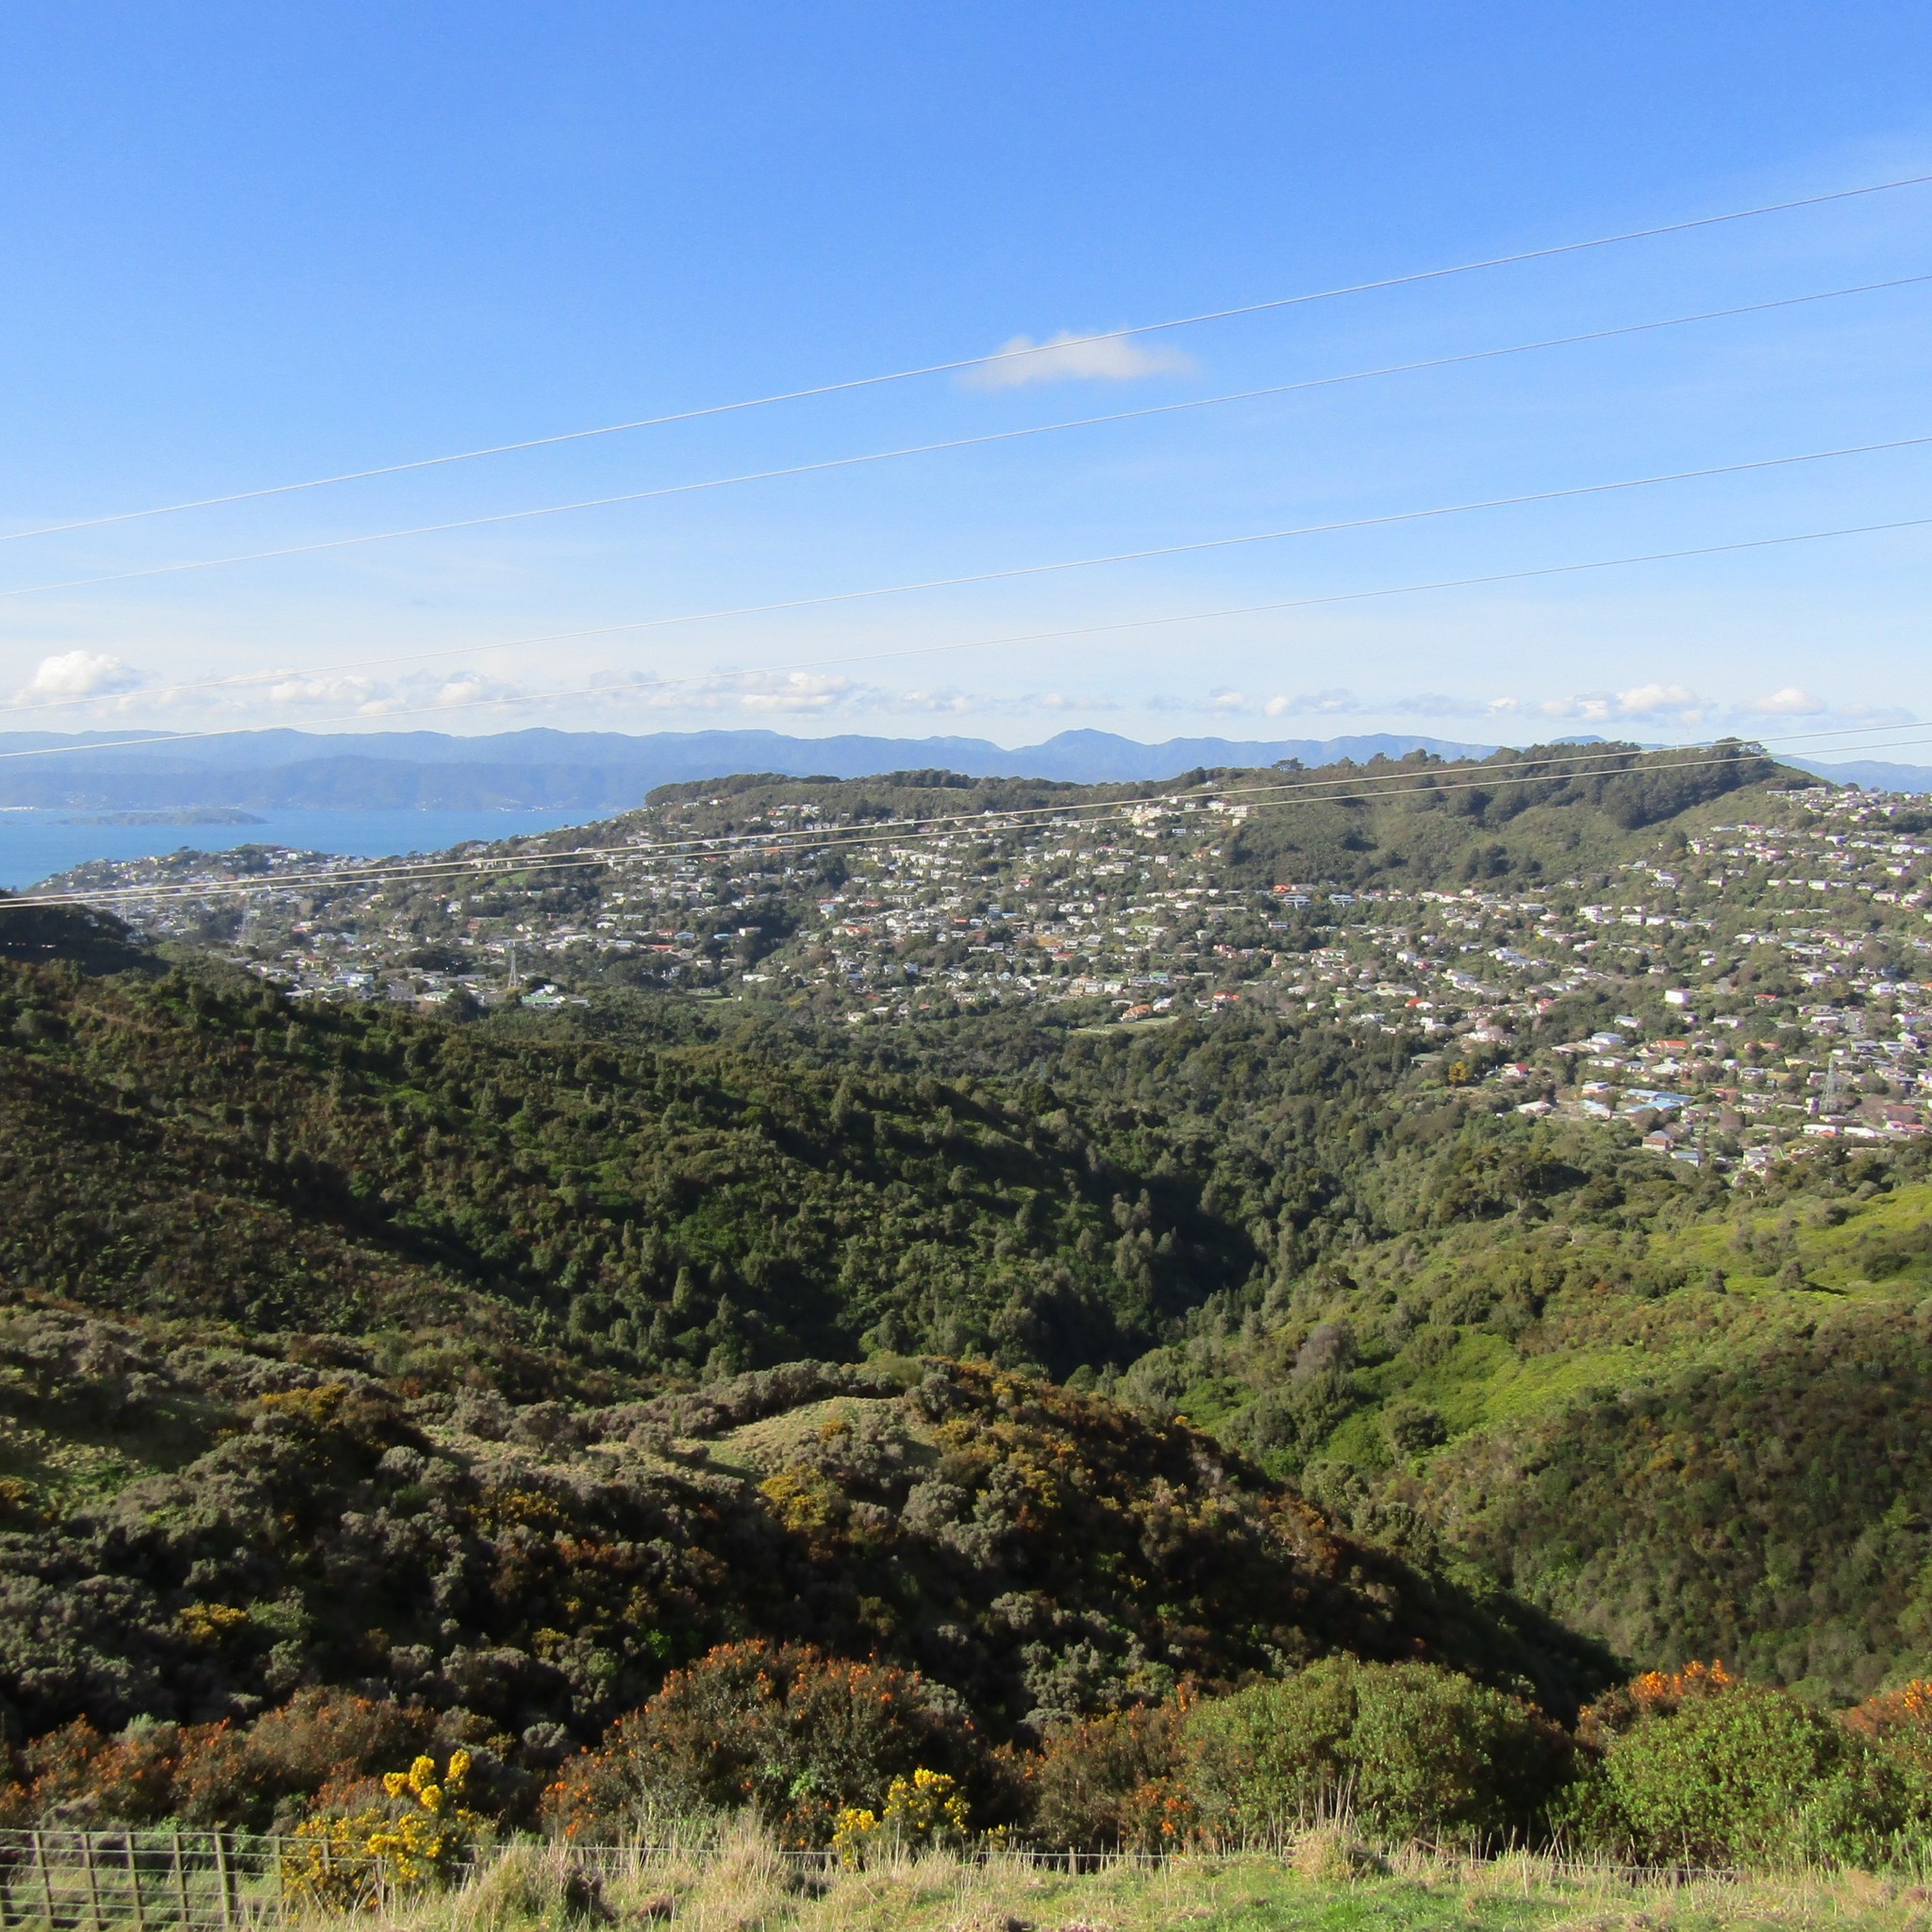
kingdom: Plantae
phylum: Tracheophyta
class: Magnoliopsida
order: Fabales
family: Fabaceae
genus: Ulex
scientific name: Ulex europaeus
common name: Common gorse
